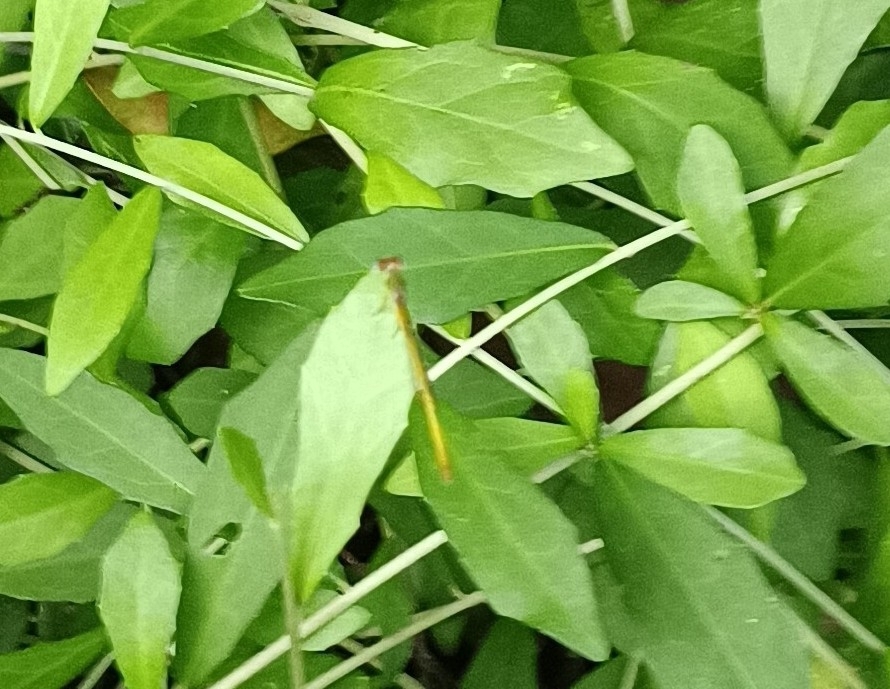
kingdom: Animalia
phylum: Arthropoda
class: Insecta
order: Odonata
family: Coenagrionidae
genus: Ceriagrion
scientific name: Ceriagrion coromandelianum
